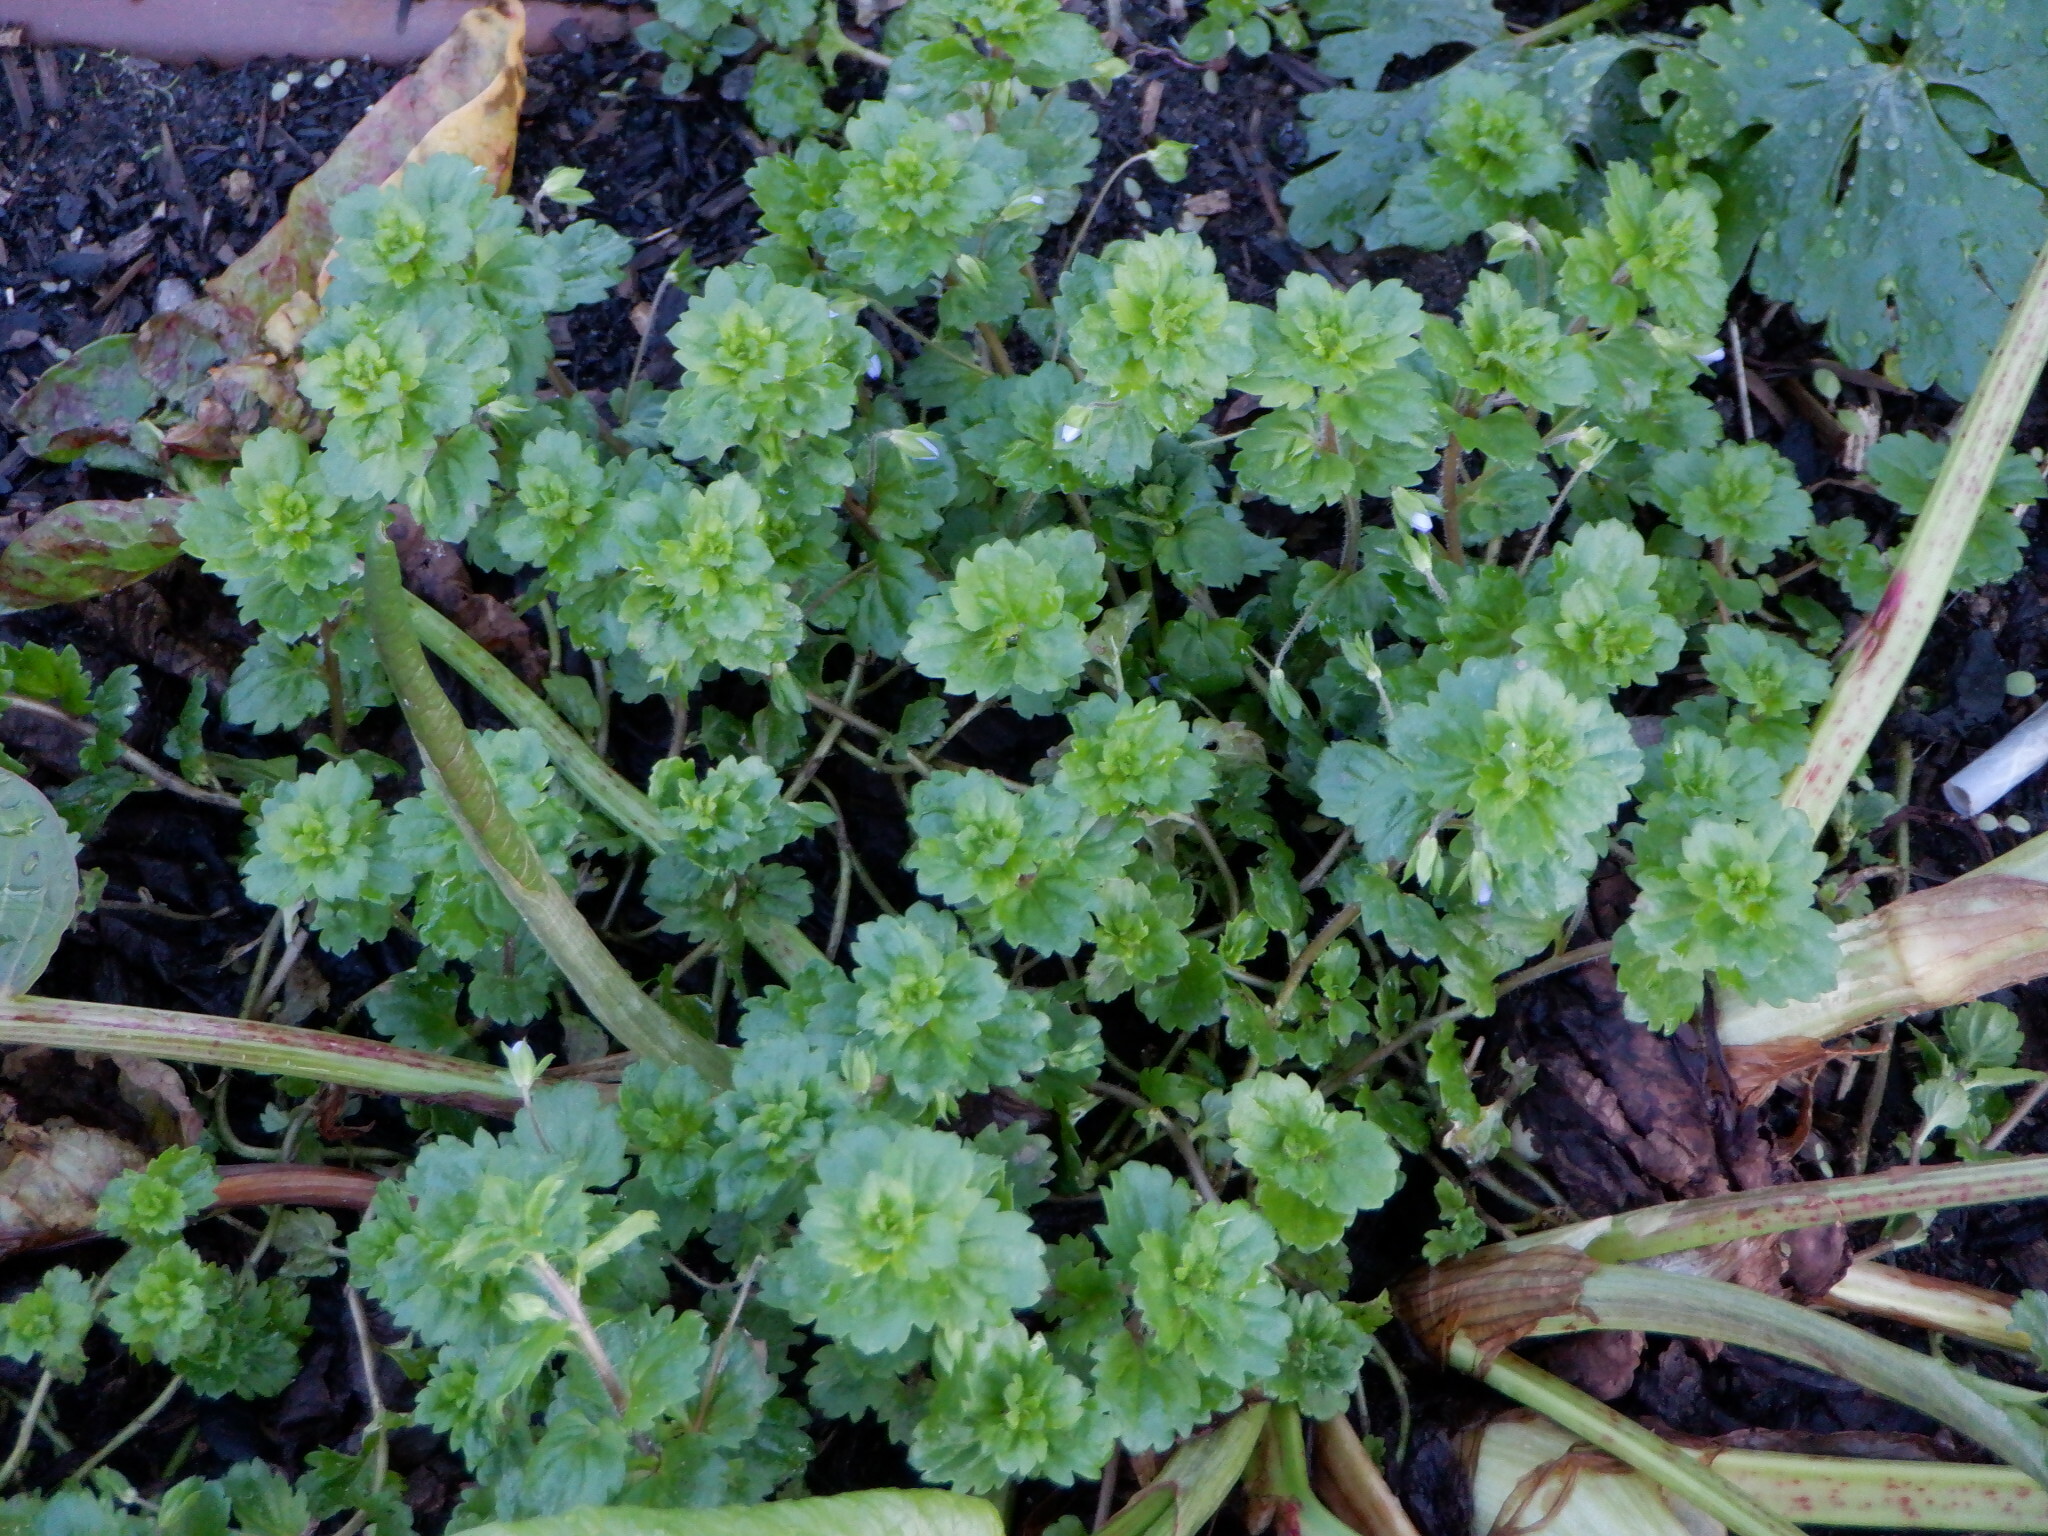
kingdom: Plantae
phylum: Tracheophyta
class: Magnoliopsida
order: Lamiales
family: Plantaginaceae
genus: Veronica
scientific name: Veronica persica
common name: Common field-speedwell
